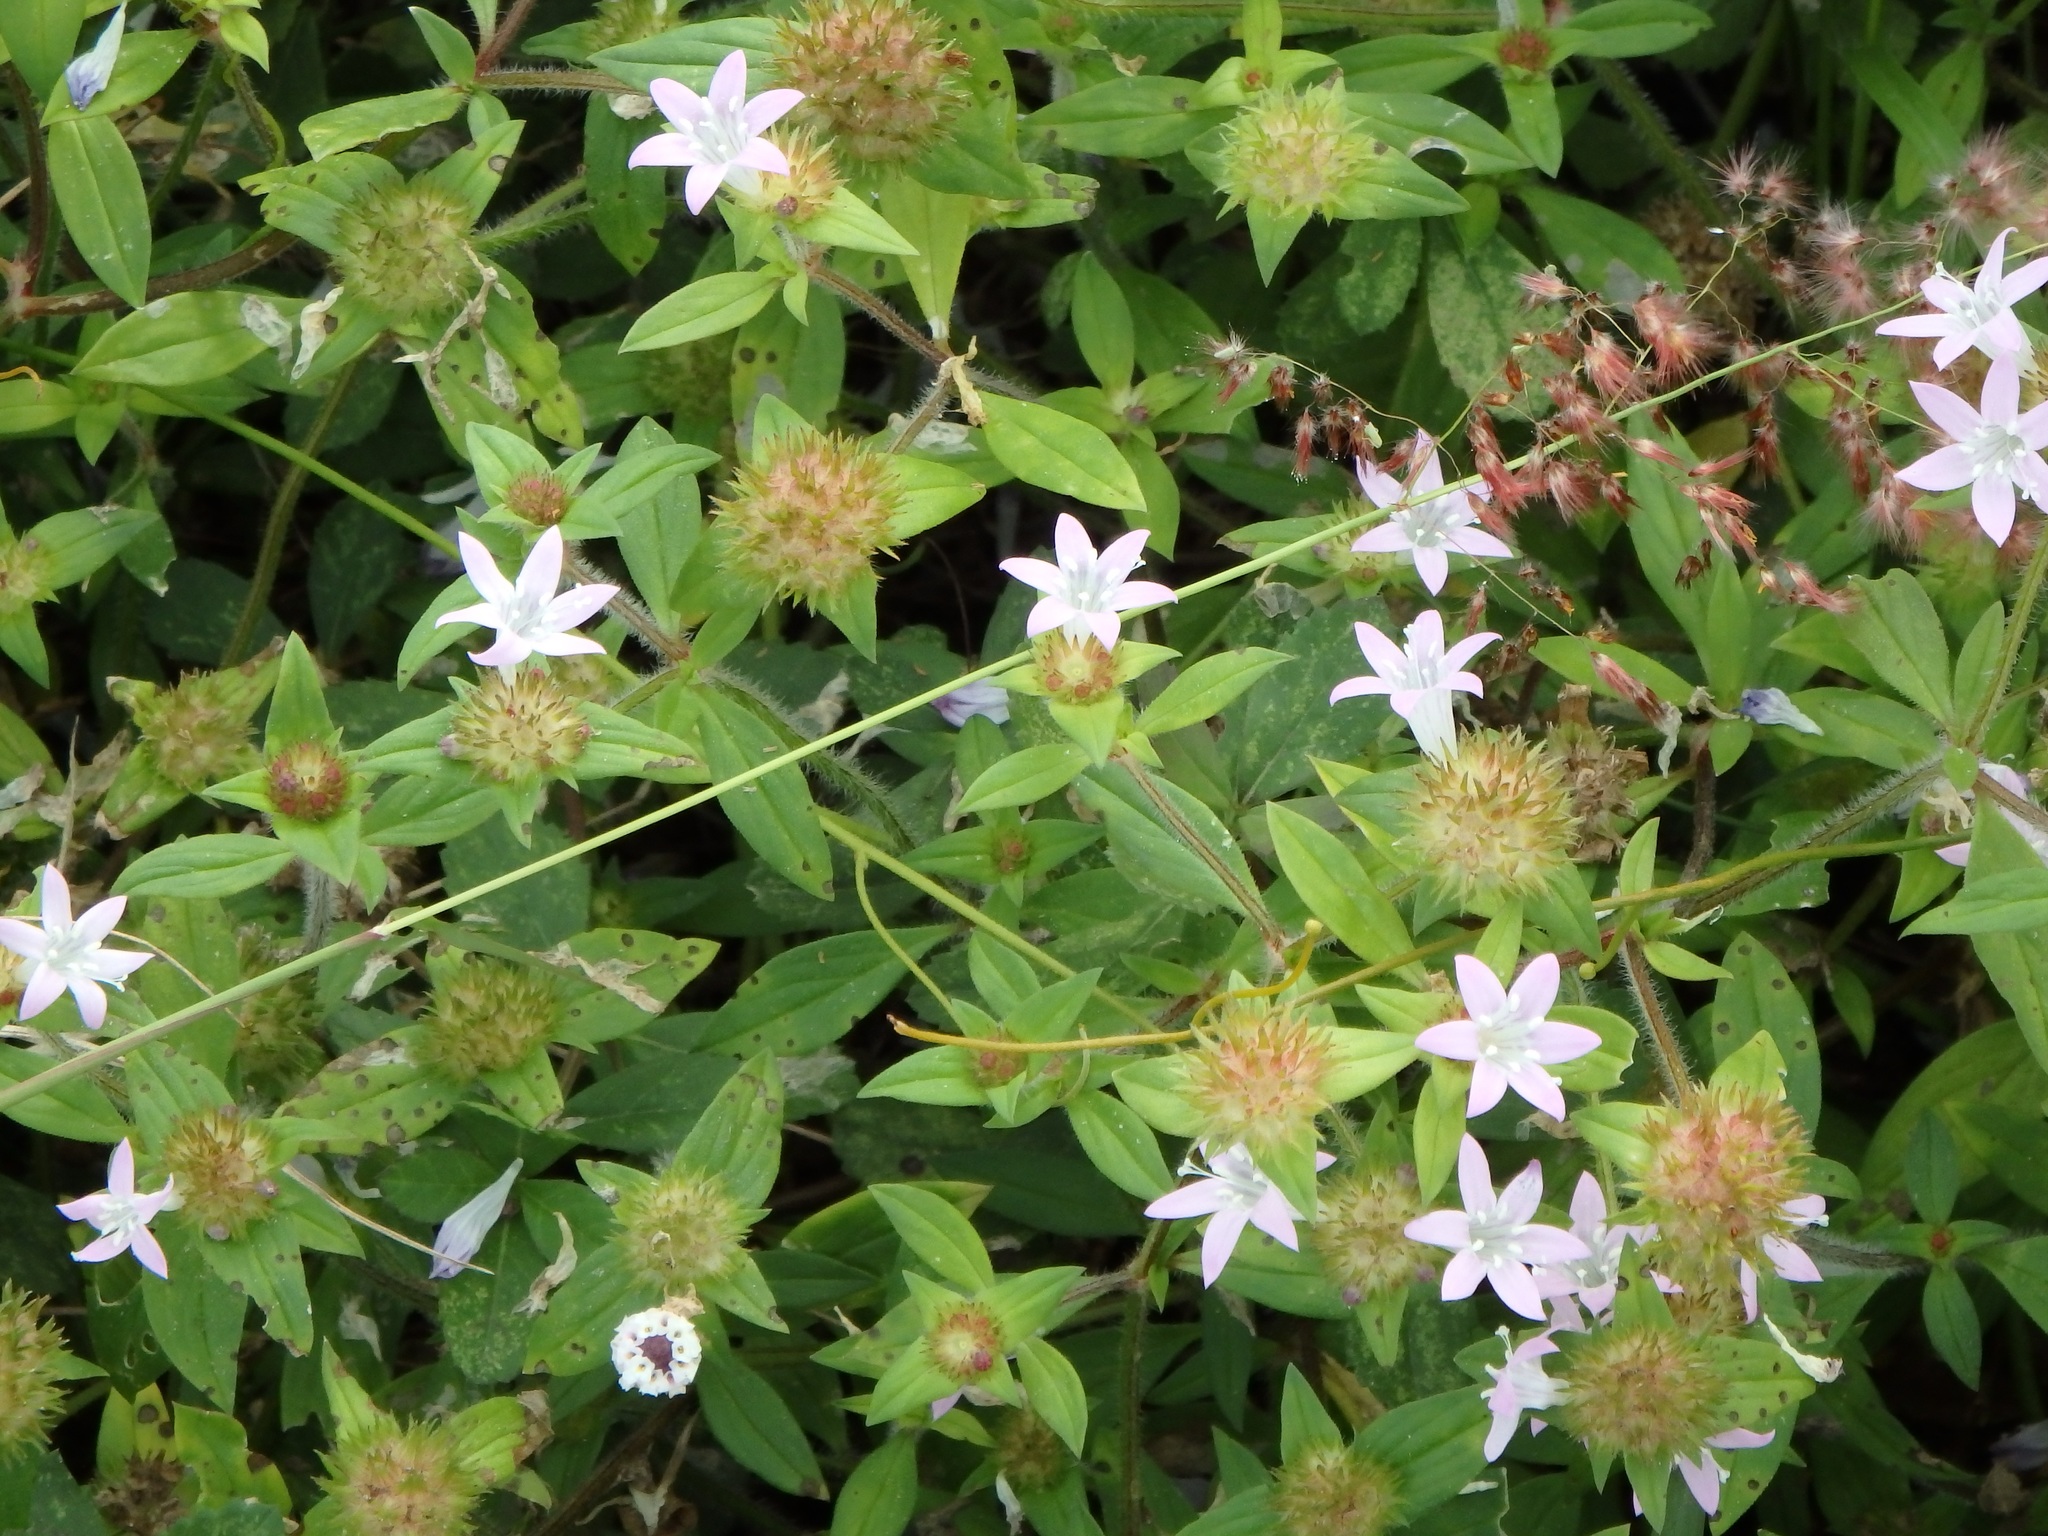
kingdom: Plantae
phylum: Tracheophyta
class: Magnoliopsida
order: Gentianales
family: Rubiaceae
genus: Richardia
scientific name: Richardia grandiflora
